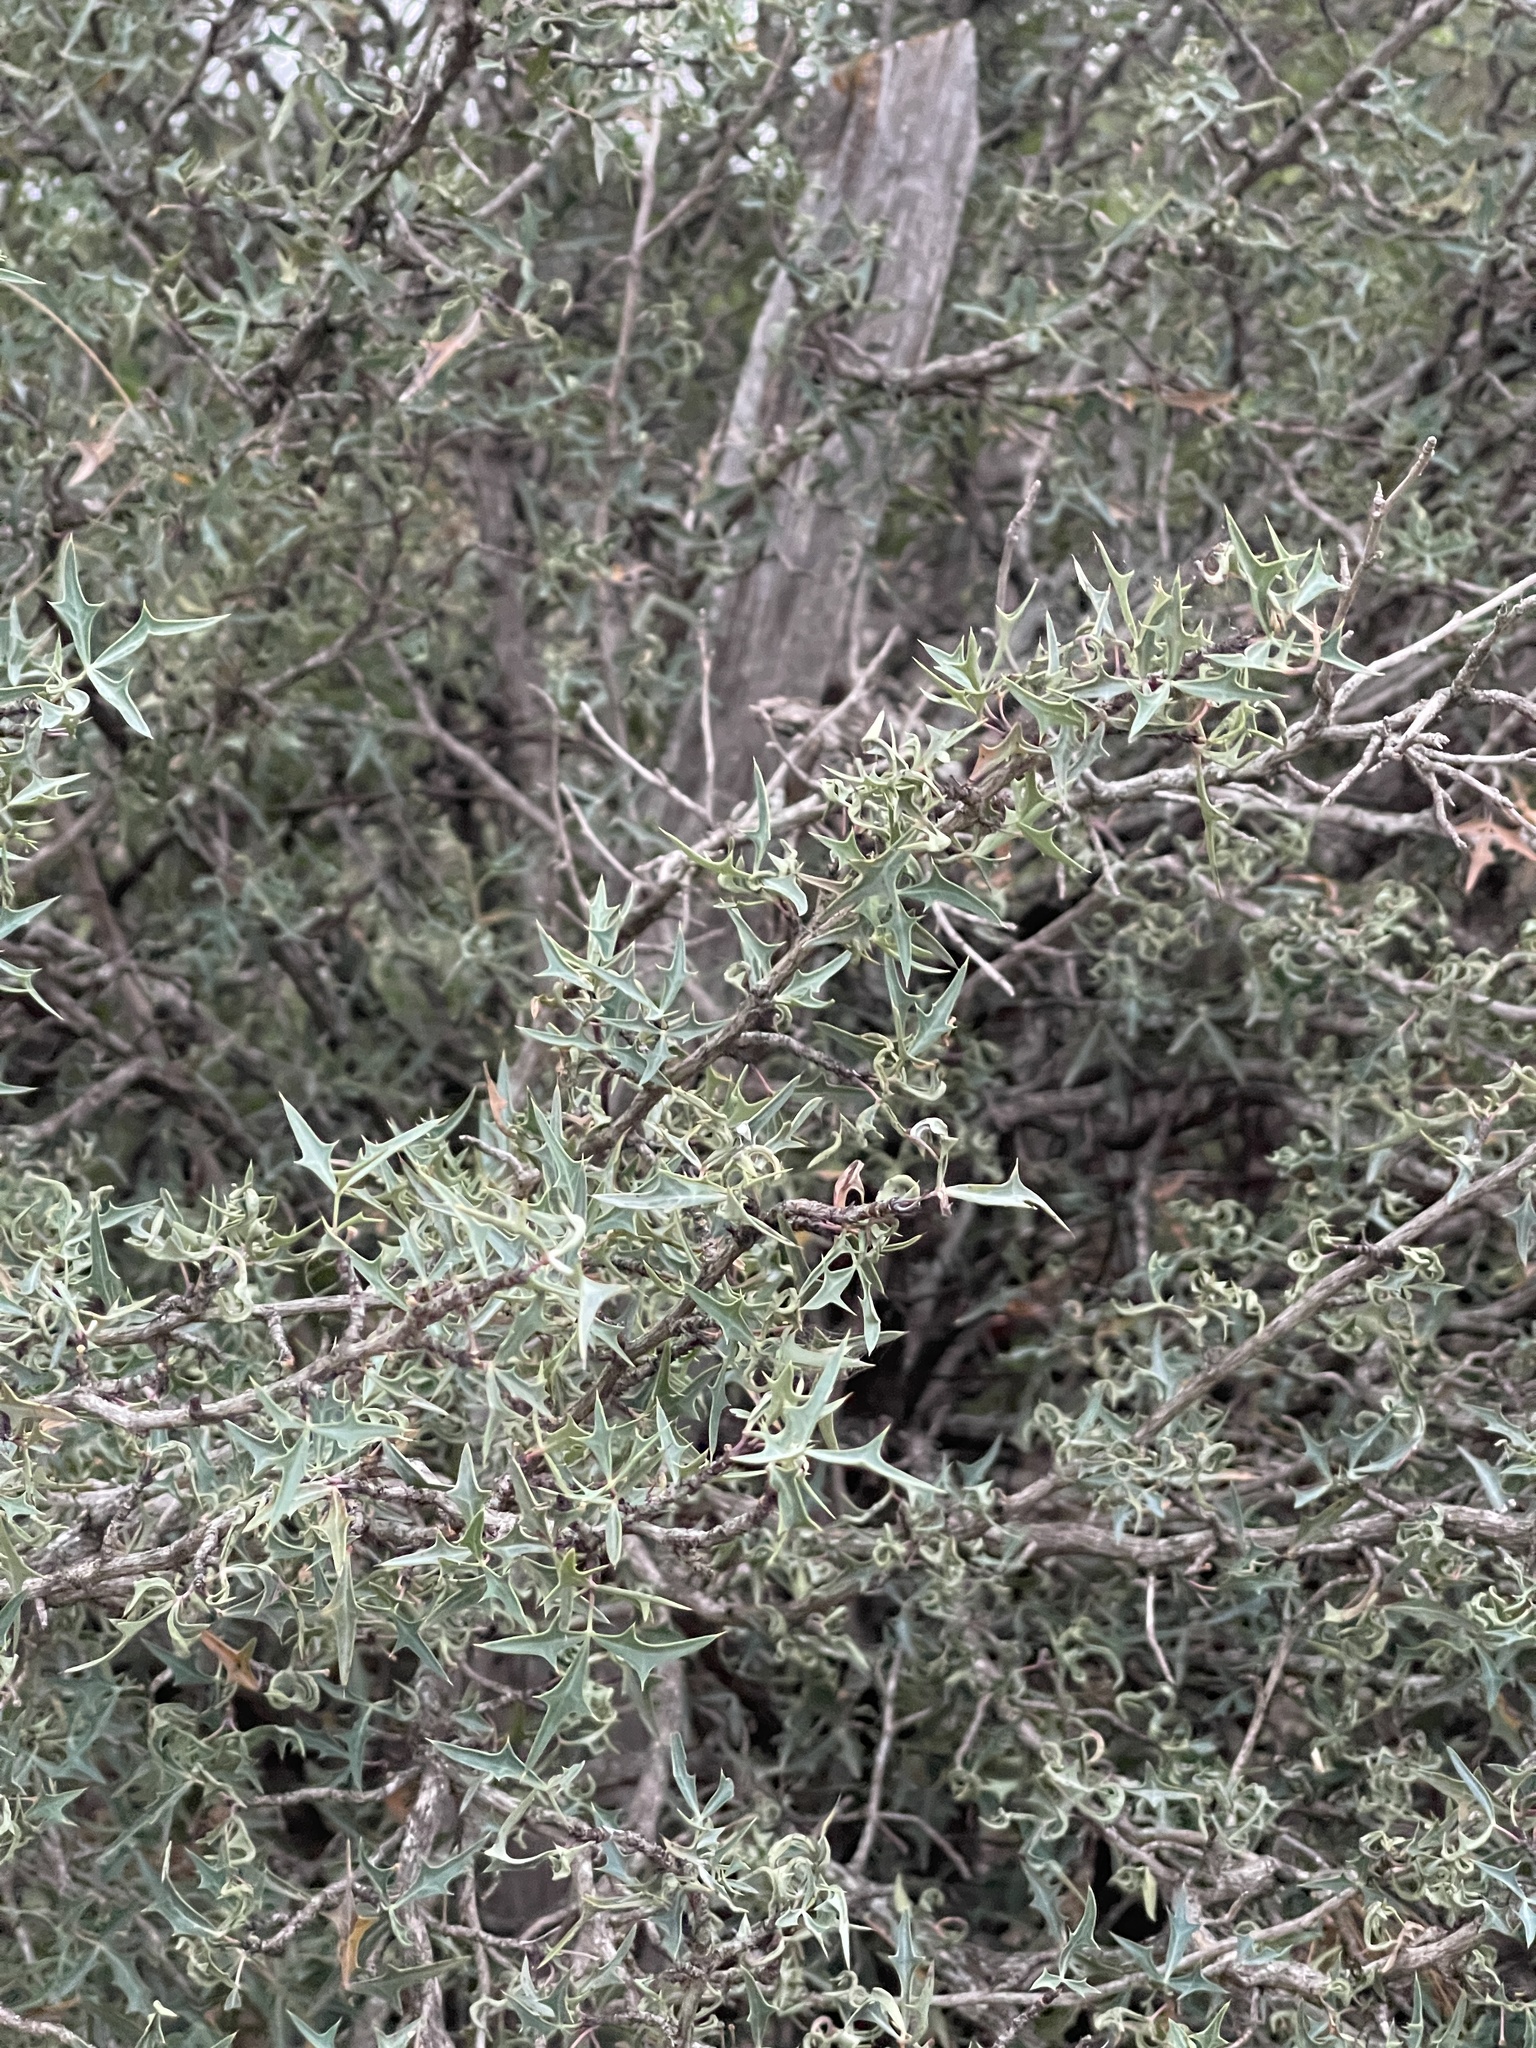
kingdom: Plantae
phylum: Tracheophyta
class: Magnoliopsida
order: Ranunculales
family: Berberidaceae
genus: Alloberberis
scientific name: Alloberberis trifoliolata
